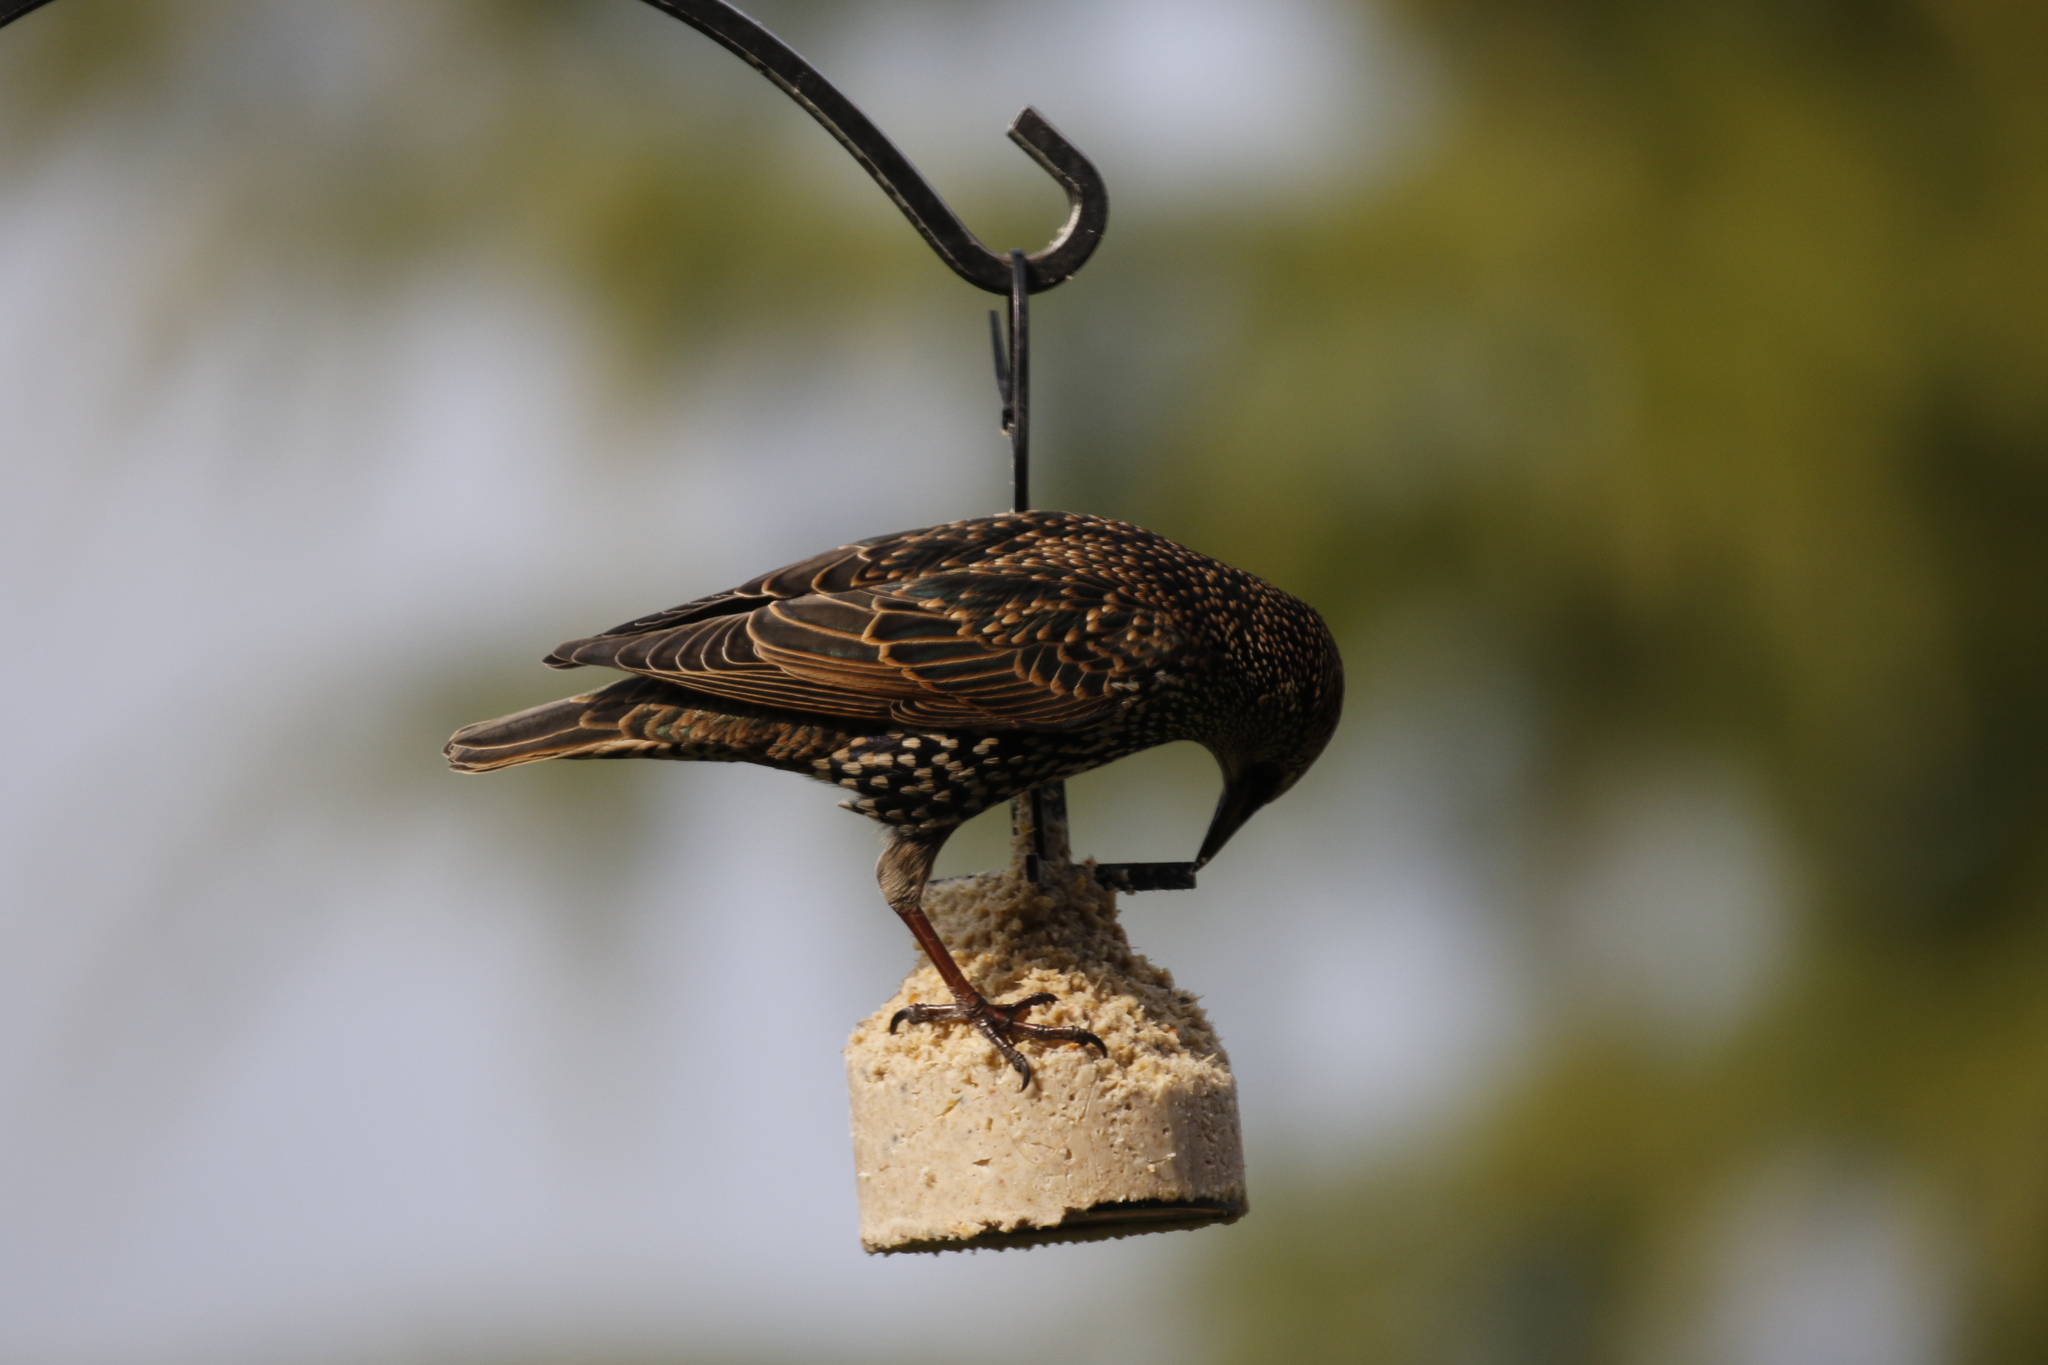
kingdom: Animalia
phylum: Chordata
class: Aves
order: Passeriformes
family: Sturnidae
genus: Sturnus
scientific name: Sturnus vulgaris
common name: Common starling
